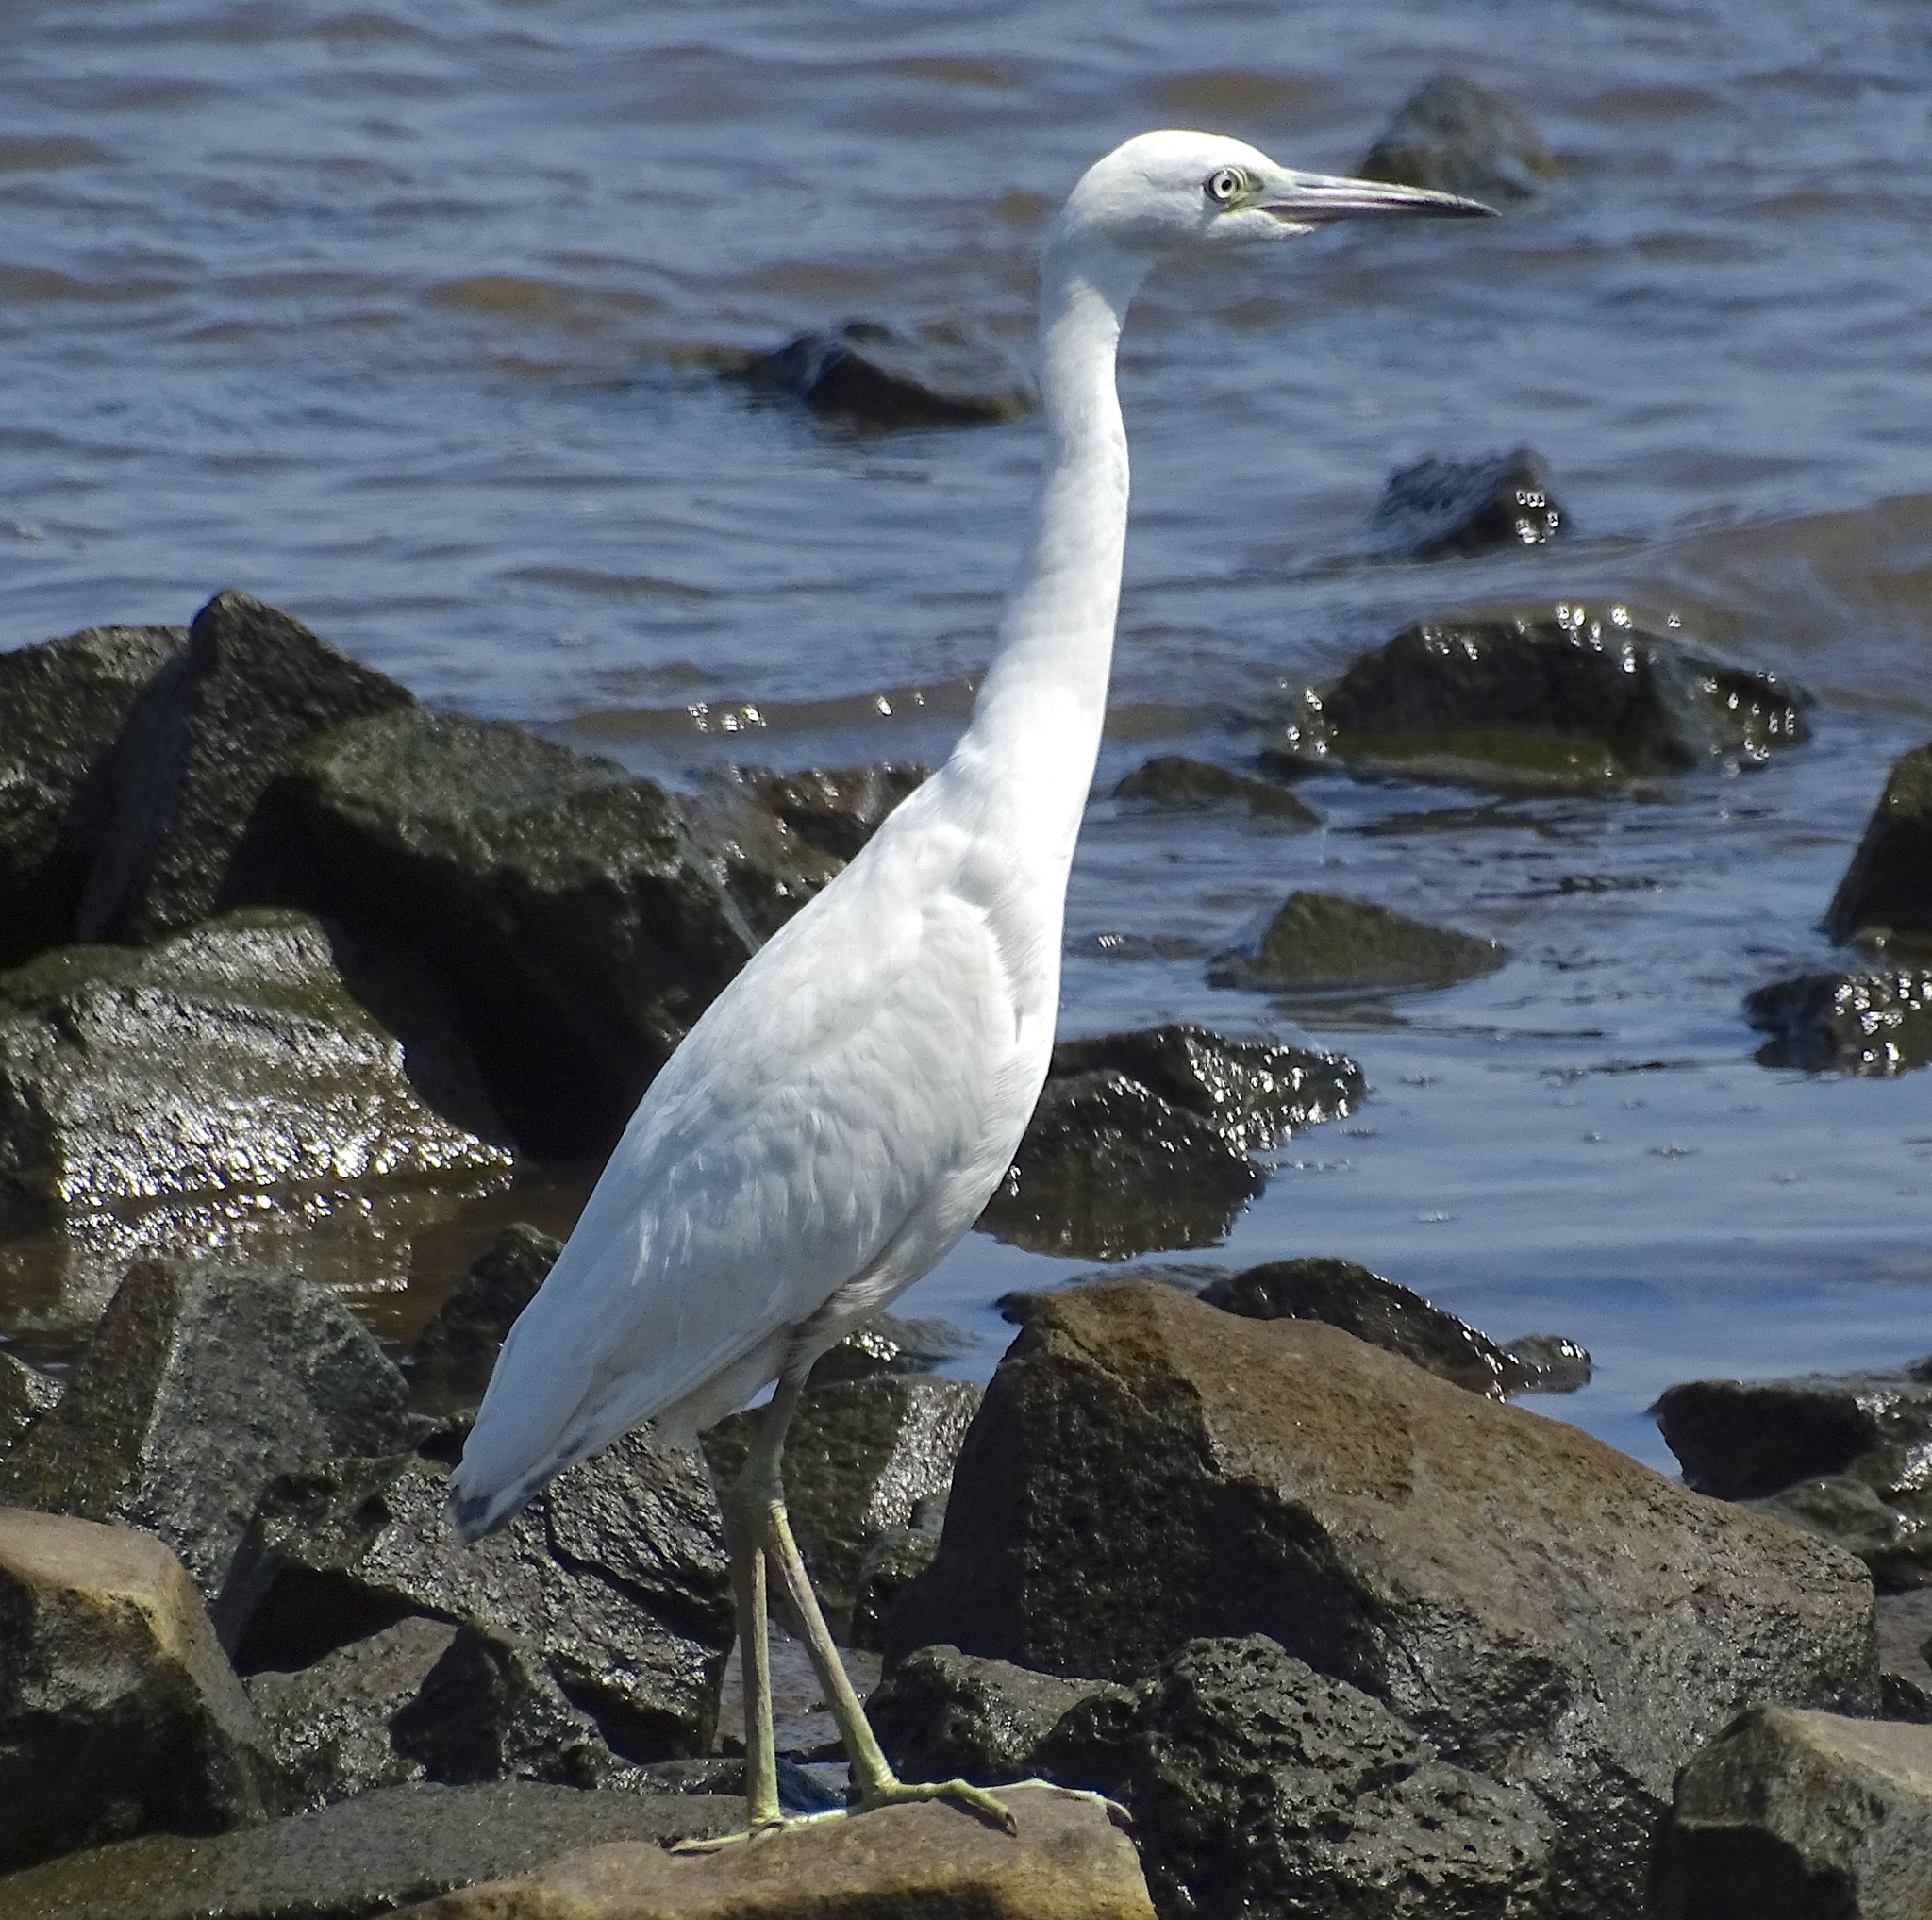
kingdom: Animalia
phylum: Chordata
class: Aves
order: Pelecaniformes
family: Ardeidae
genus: Egretta
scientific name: Egretta caerulea
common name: Little blue heron
